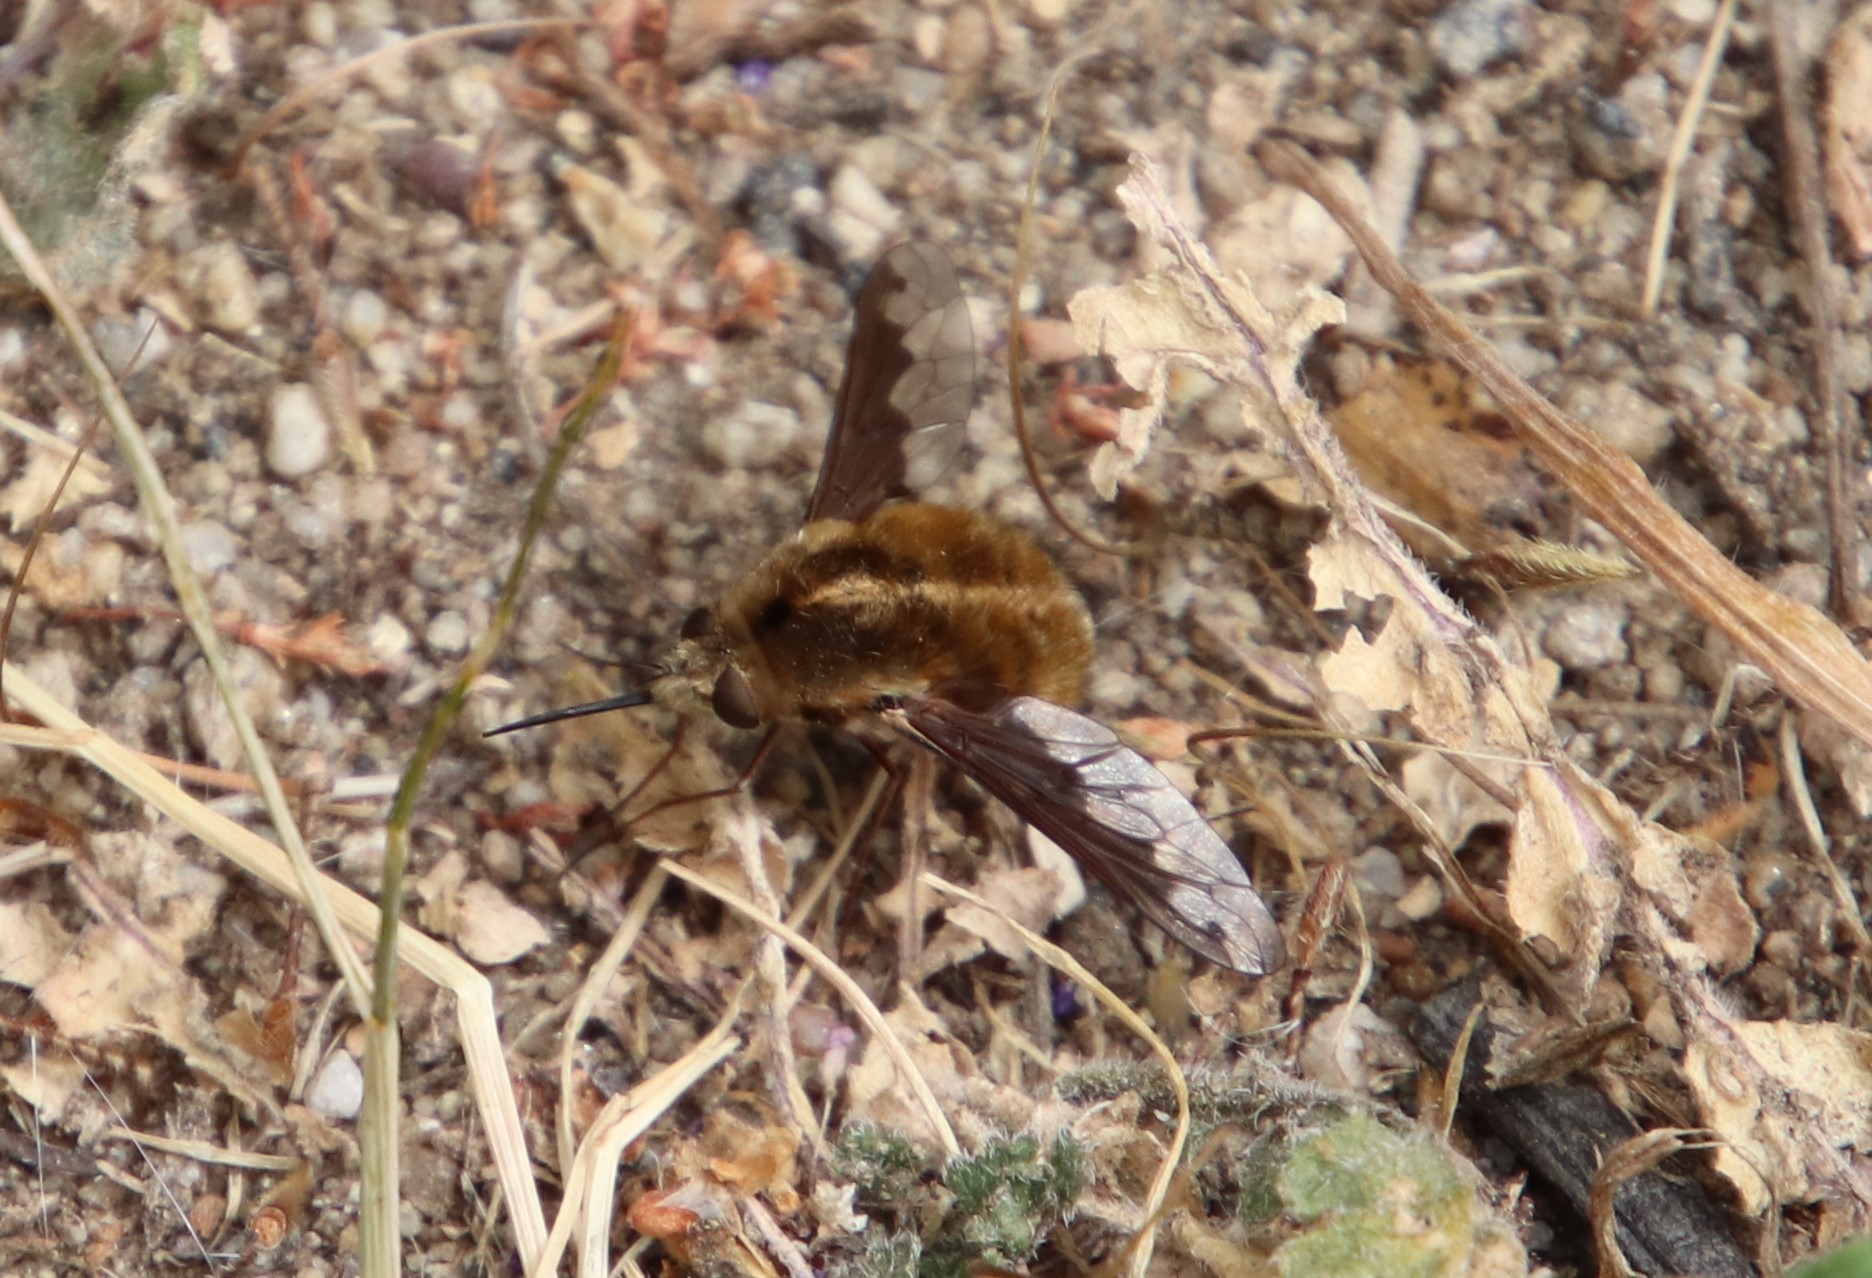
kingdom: Animalia
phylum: Arthropoda
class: Insecta
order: Diptera
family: Bombyliidae
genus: Bombylius
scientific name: Bombylius major
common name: Bee fly
